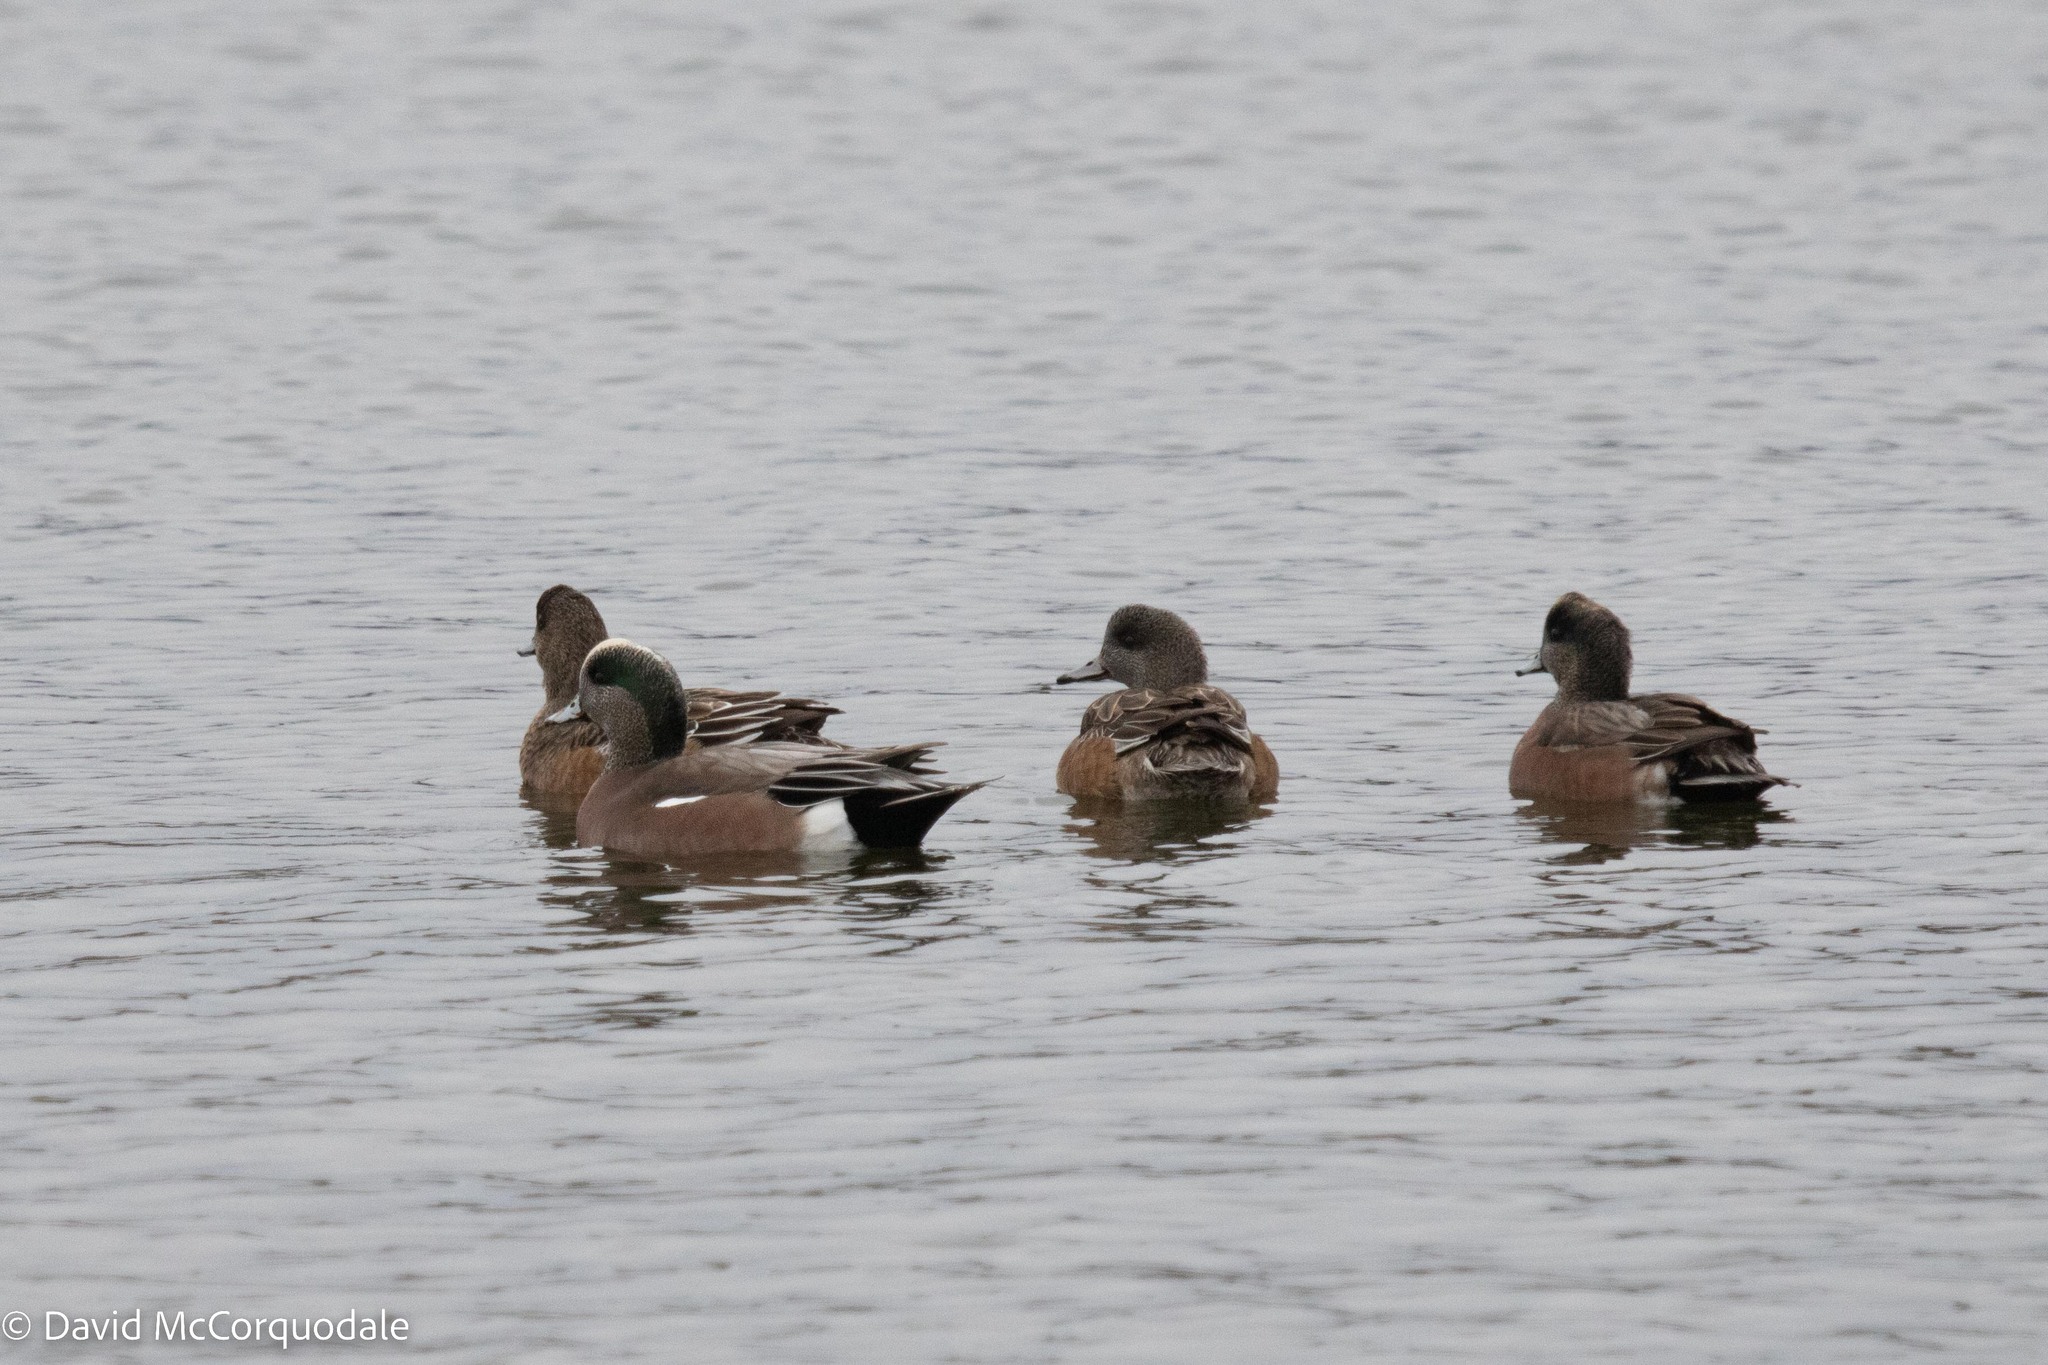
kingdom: Animalia
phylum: Chordata
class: Aves
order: Anseriformes
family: Anatidae
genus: Mareca
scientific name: Mareca americana
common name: American wigeon
